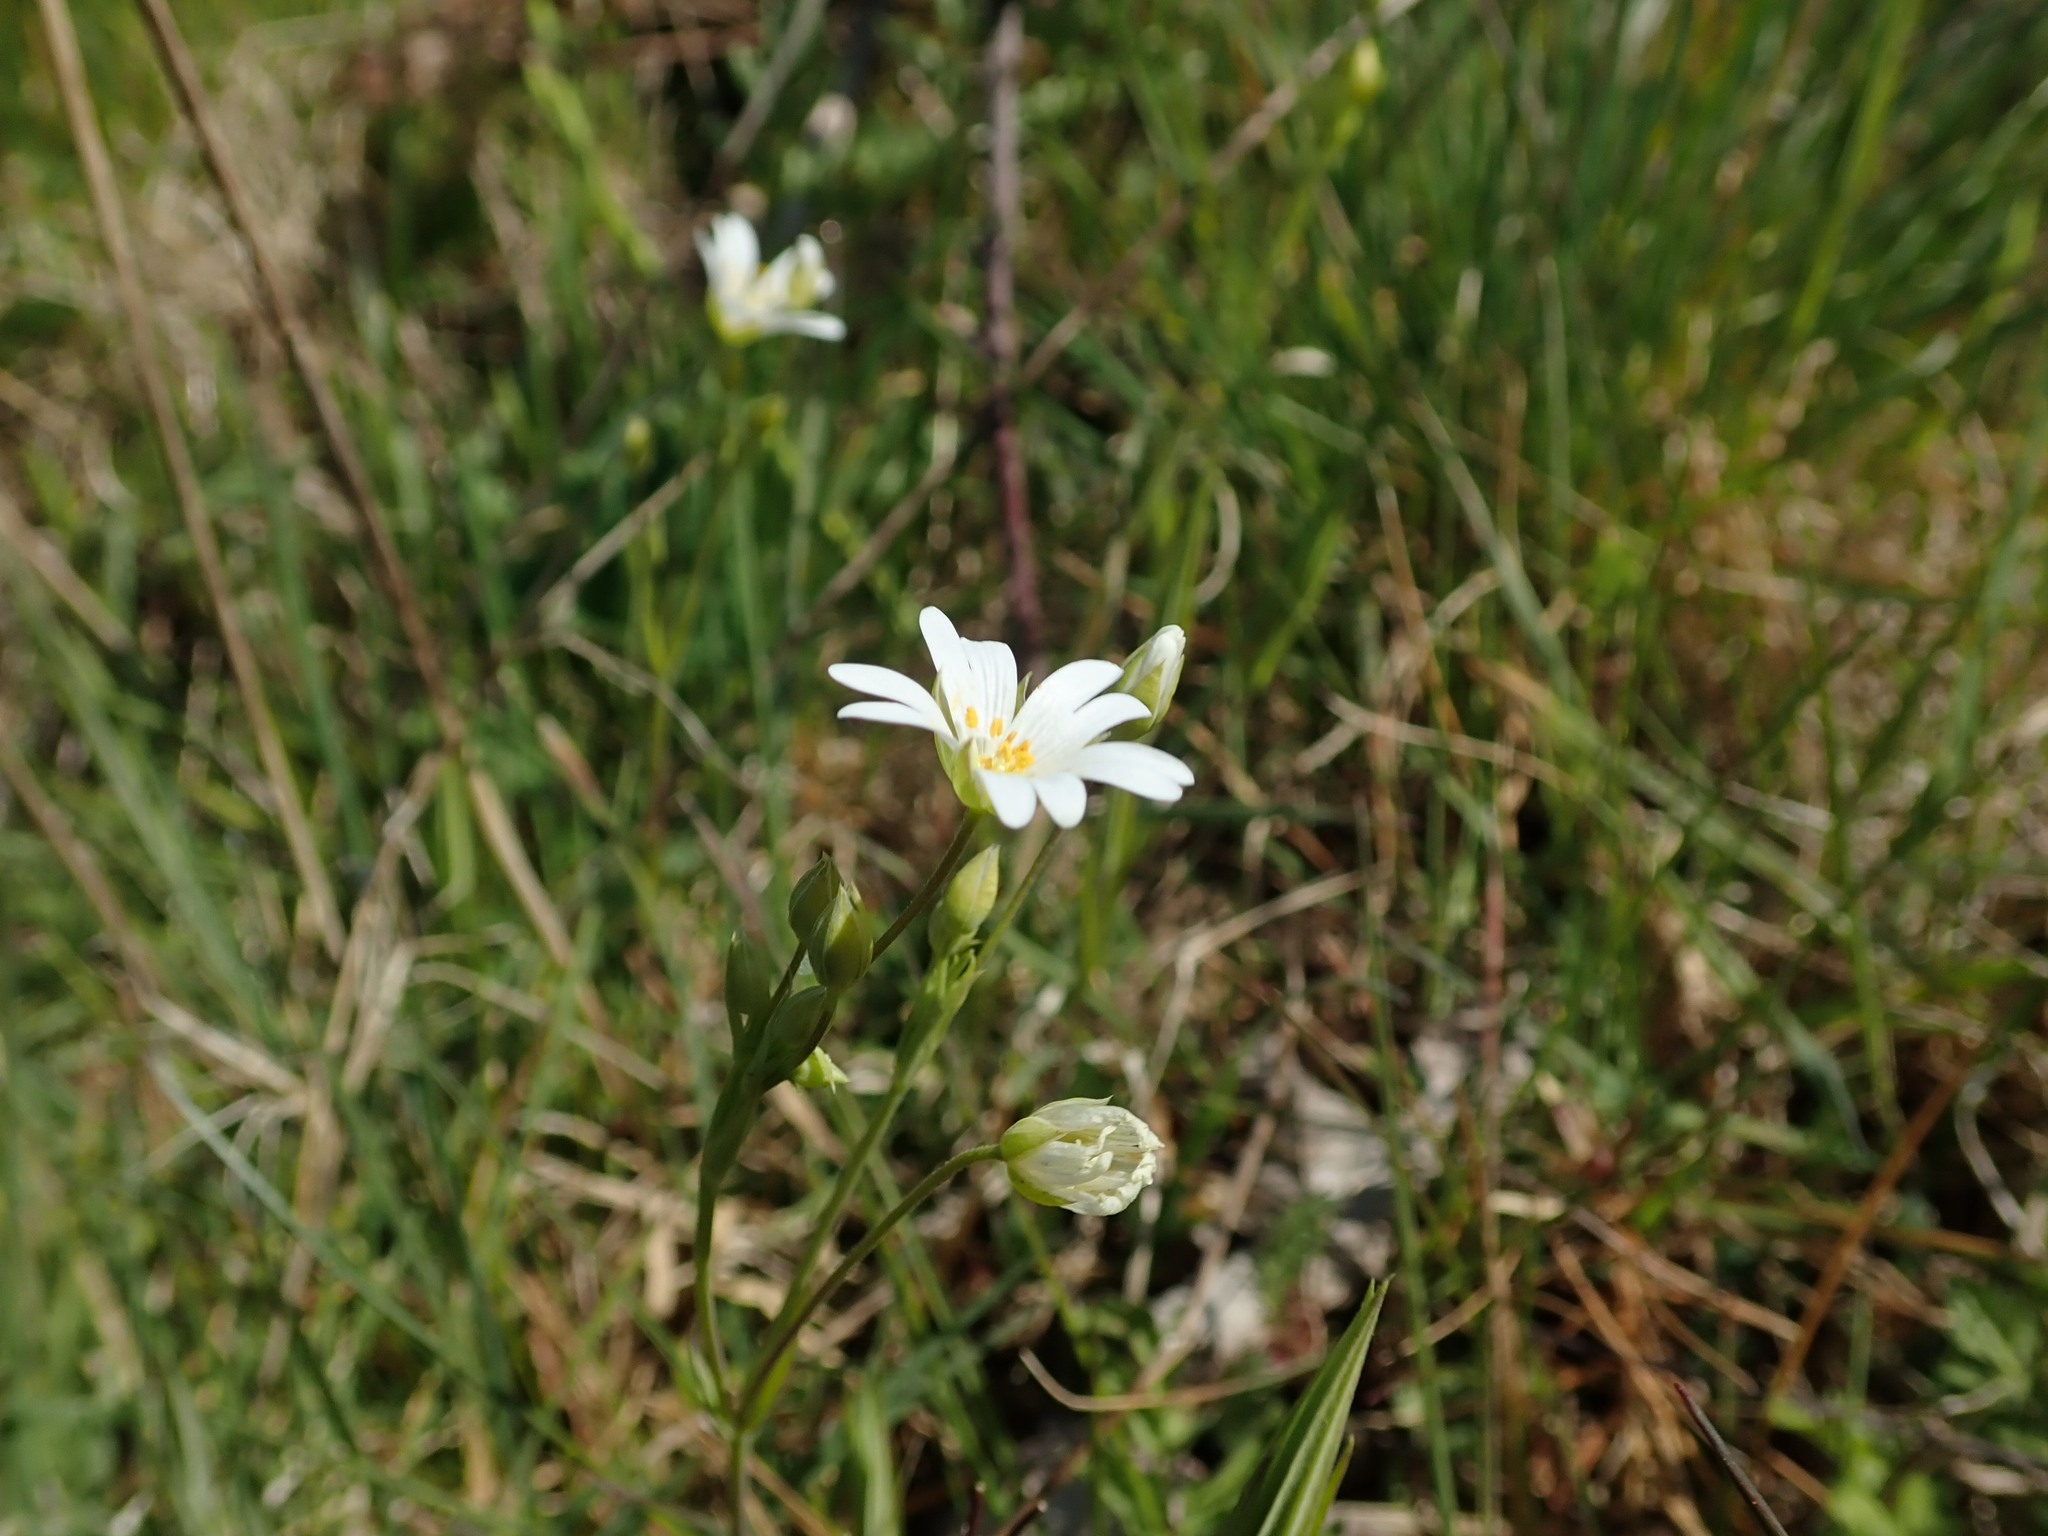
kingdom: Plantae
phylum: Tracheophyta
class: Magnoliopsida
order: Caryophyllales
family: Caryophyllaceae
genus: Rabelera
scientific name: Rabelera holostea
